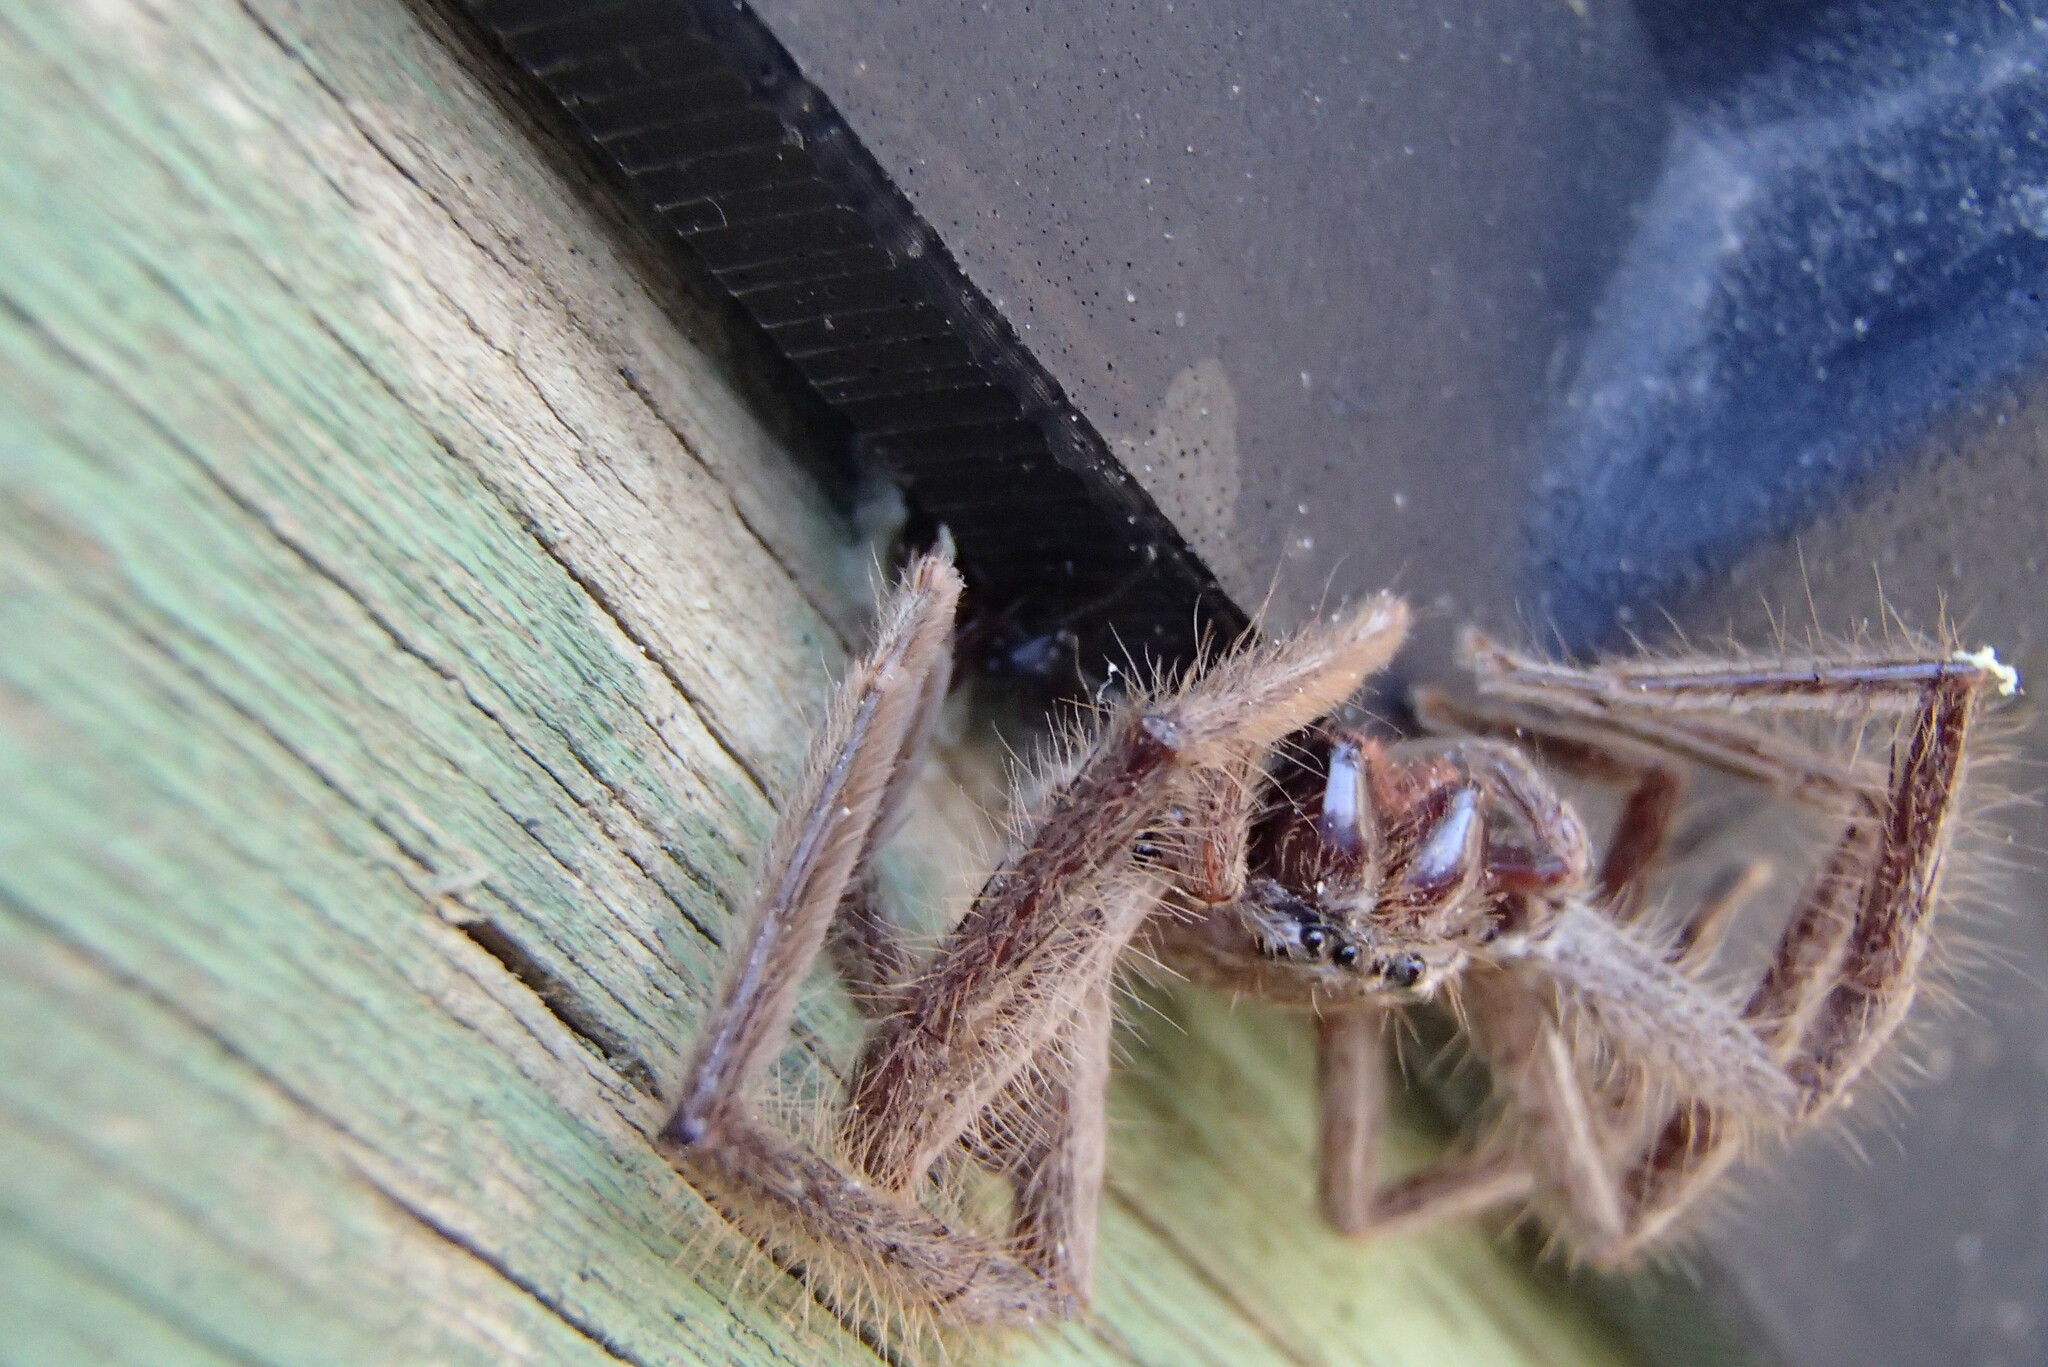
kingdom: Animalia
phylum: Arthropoda
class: Arachnida
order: Araneae
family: Sparassidae
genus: Isopeda
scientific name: Isopeda villosa
